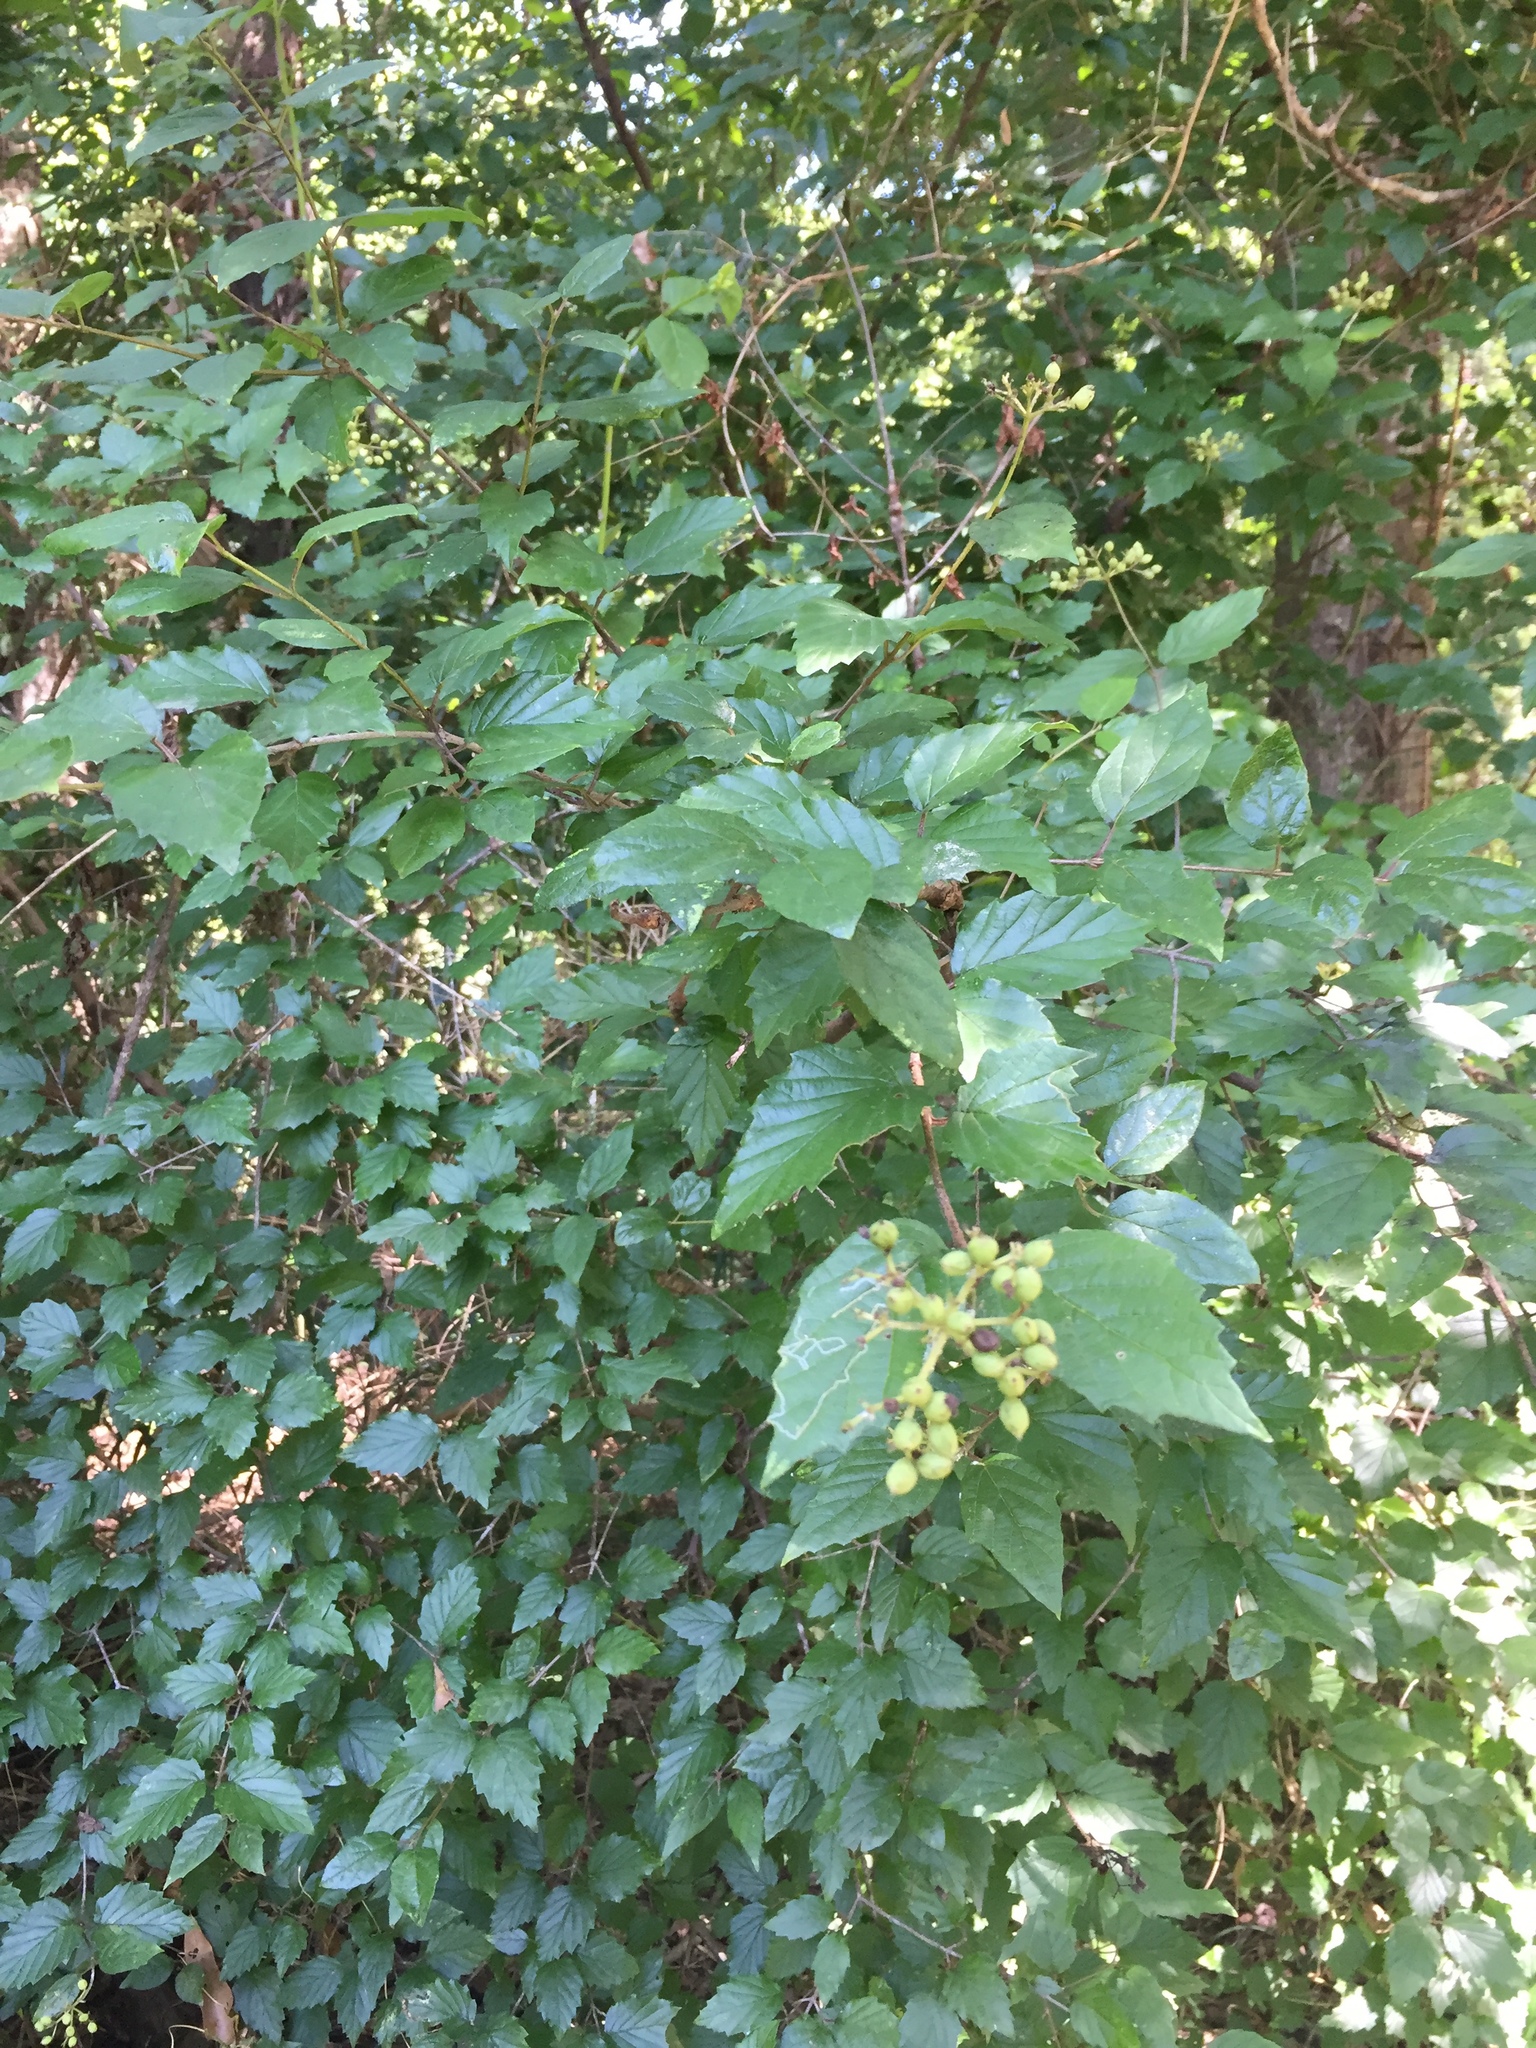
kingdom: Plantae
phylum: Tracheophyta
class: Magnoliopsida
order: Dipsacales
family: Viburnaceae
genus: Viburnum
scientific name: Viburnum scabrellum
